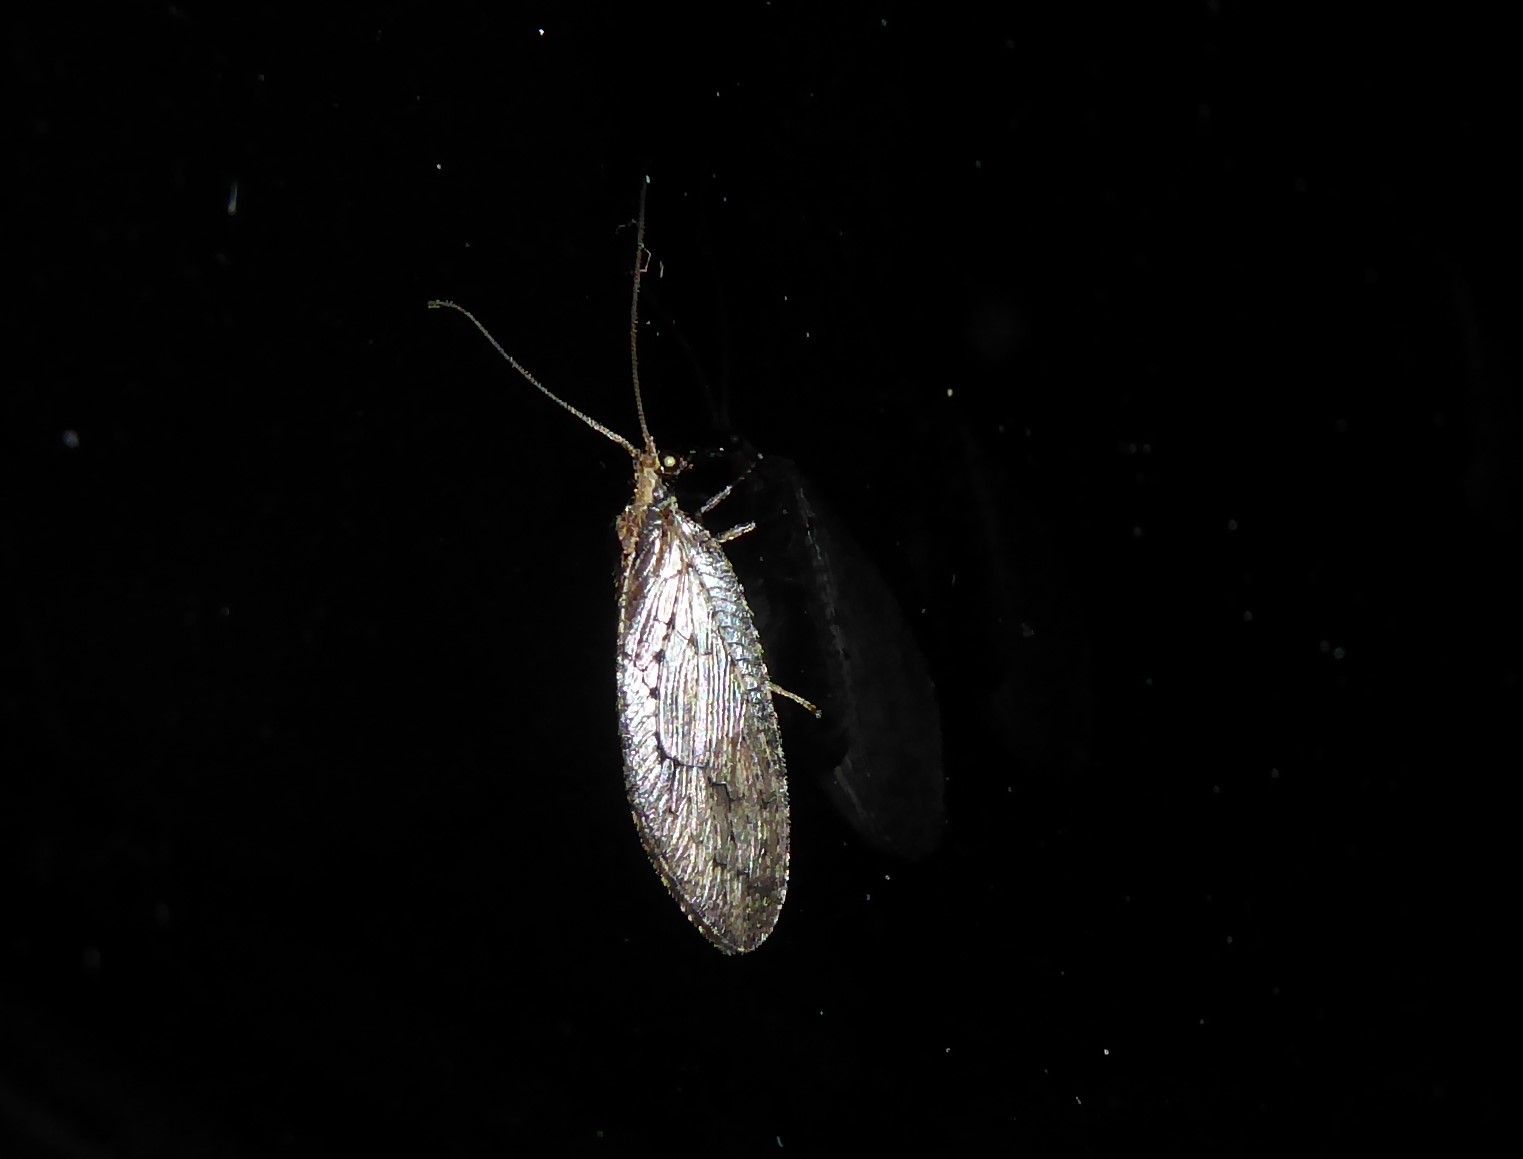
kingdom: Animalia
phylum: Arthropoda
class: Insecta
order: Neuroptera
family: Hemerobiidae
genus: Wesmaelius
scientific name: Wesmaelius subnebulosus
